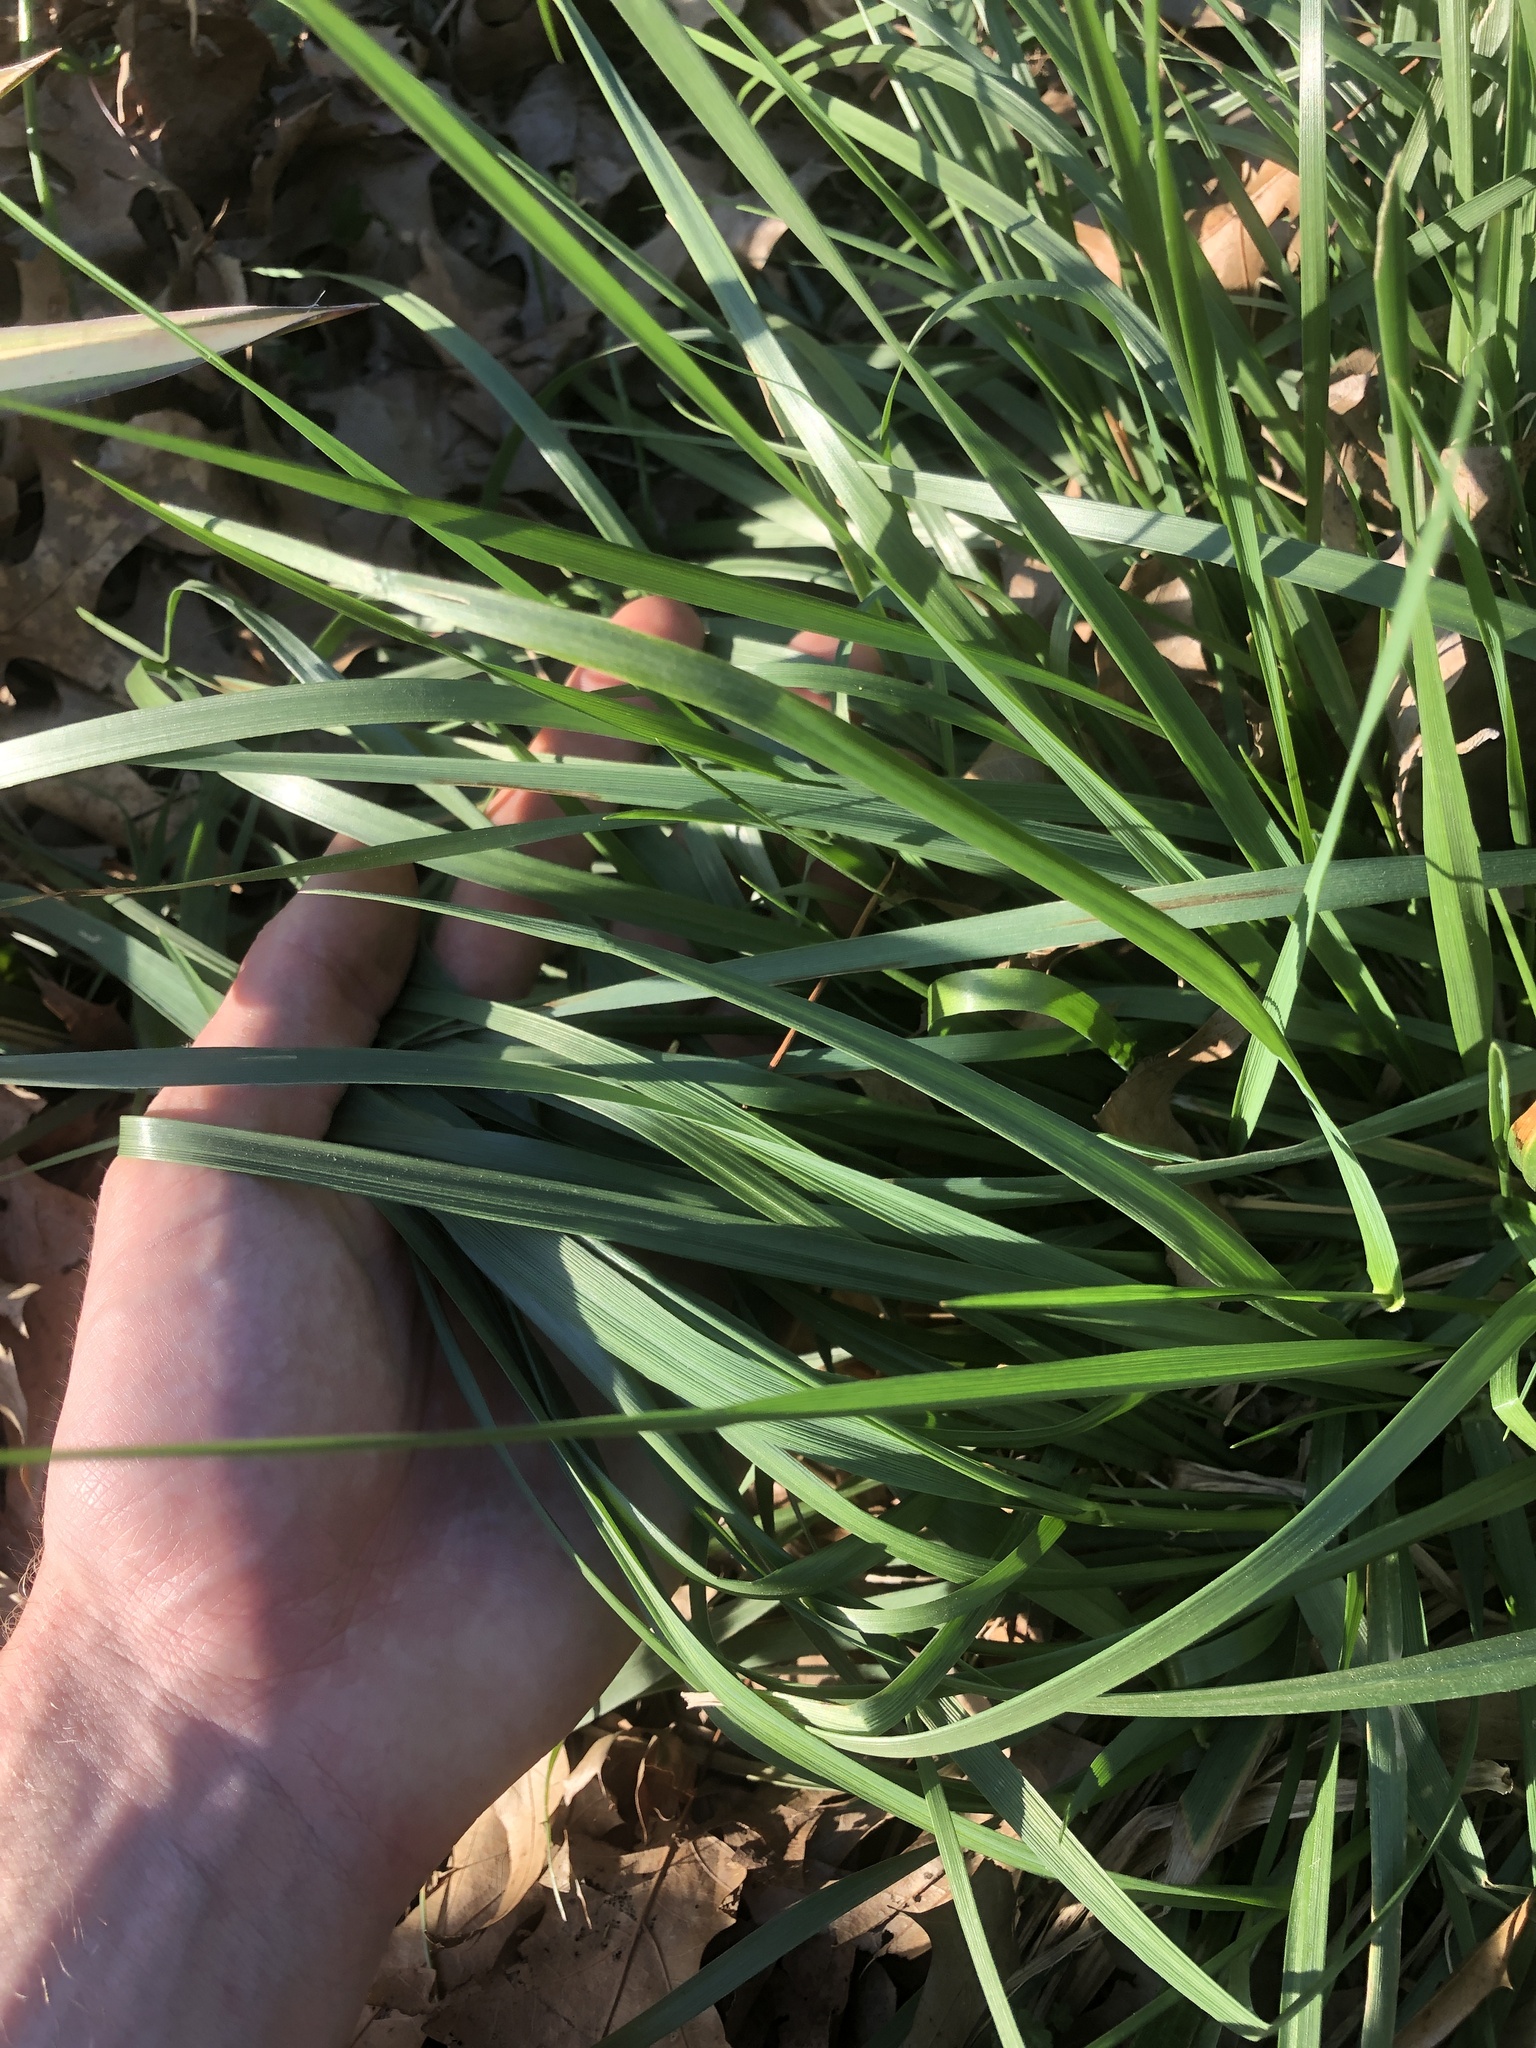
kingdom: Plantae
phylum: Tracheophyta
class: Liliopsida
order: Poales
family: Poaceae
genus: Lolium
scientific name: Lolium arundinaceum
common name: Reed fescue
